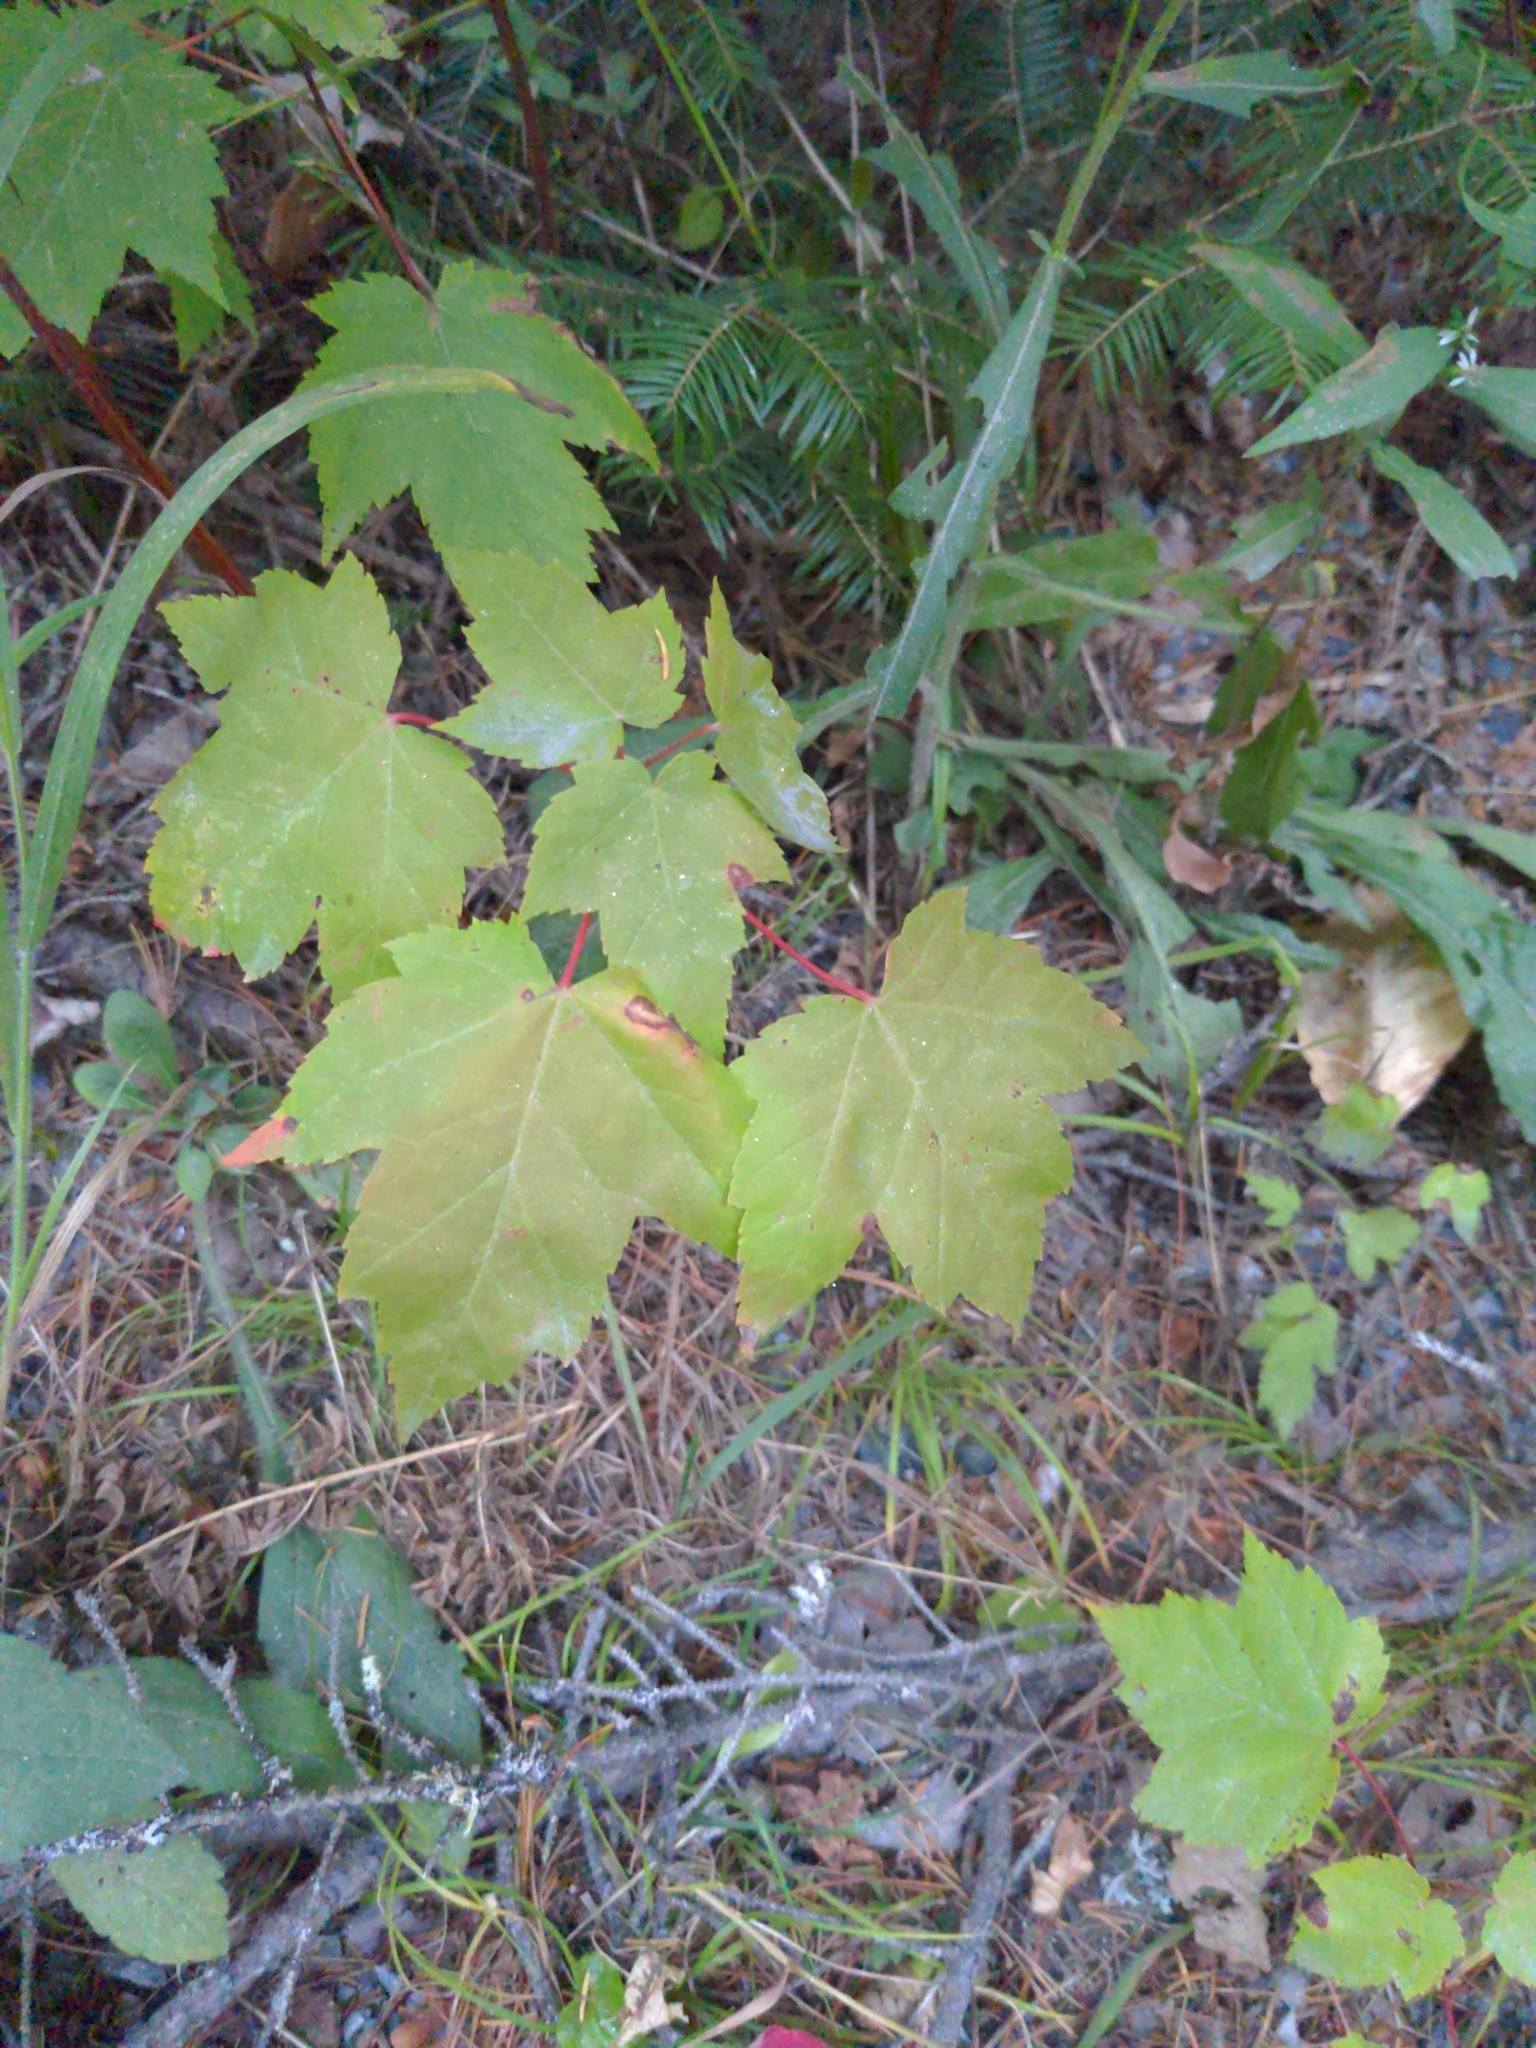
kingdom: Plantae
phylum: Tracheophyta
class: Magnoliopsida
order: Sapindales
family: Sapindaceae
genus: Acer
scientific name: Acer rubrum
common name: Red maple
